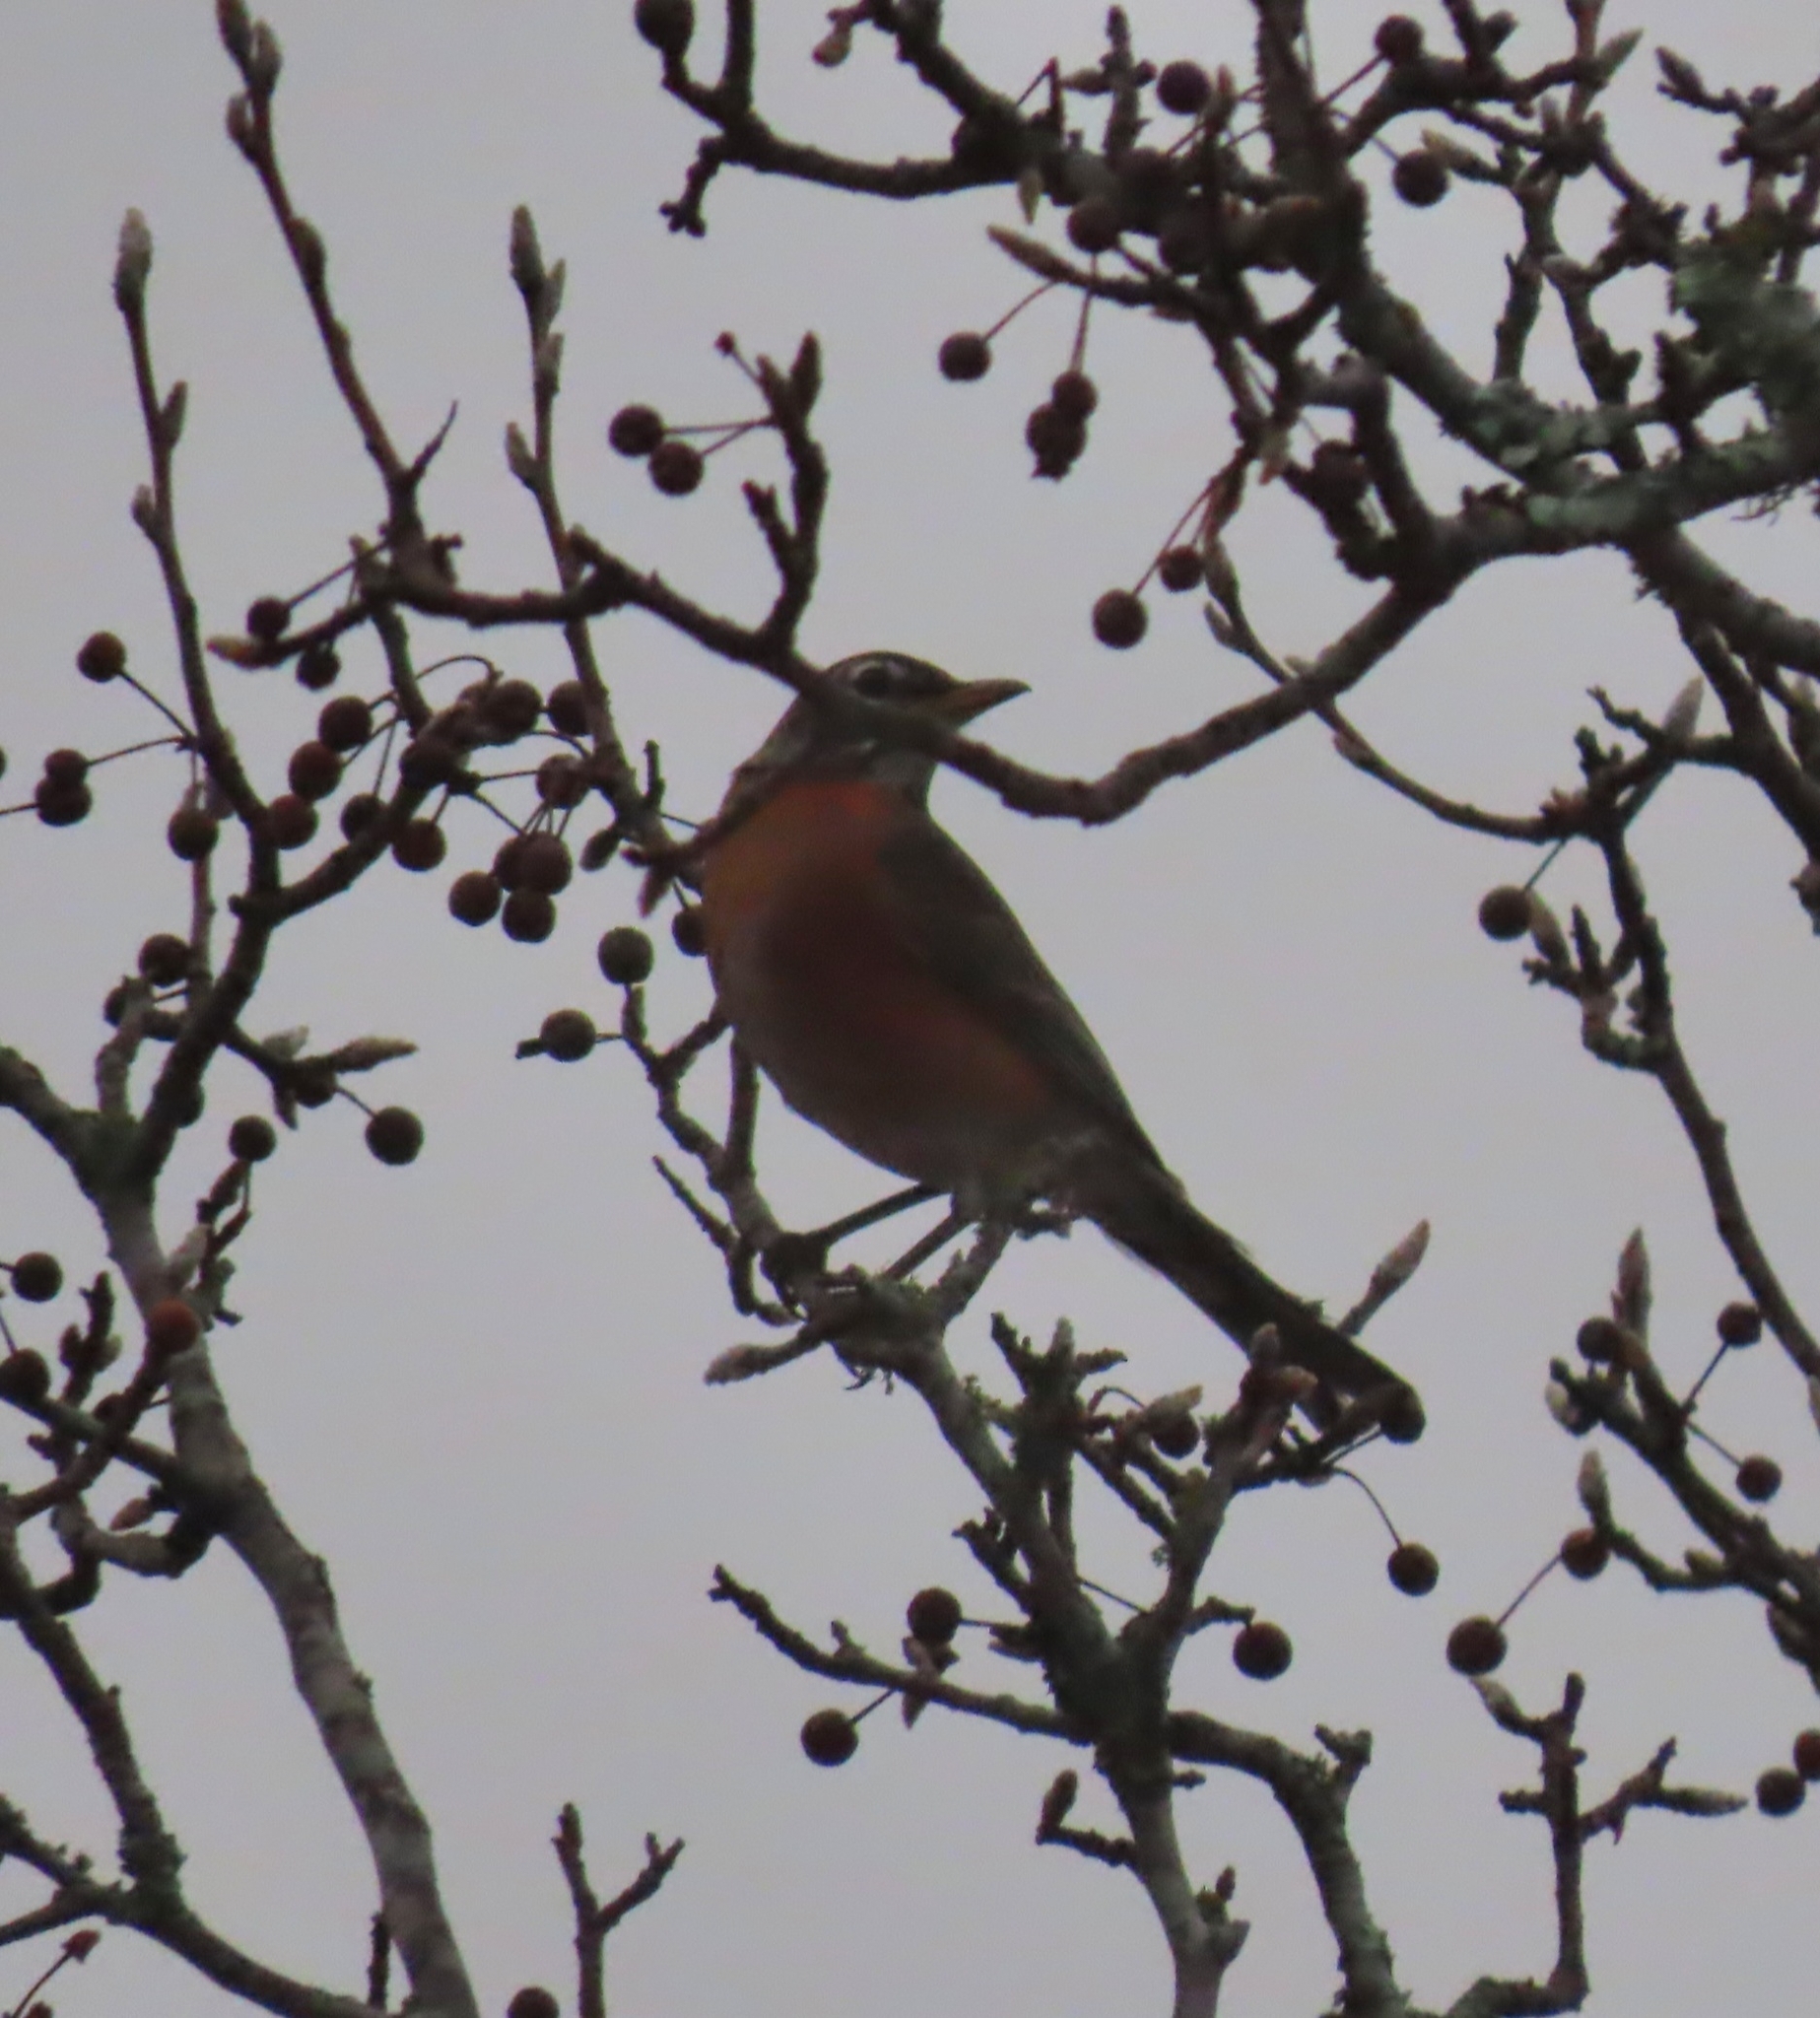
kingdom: Animalia
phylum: Chordata
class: Aves
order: Passeriformes
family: Turdidae
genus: Turdus
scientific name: Turdus migratorius
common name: American robin
